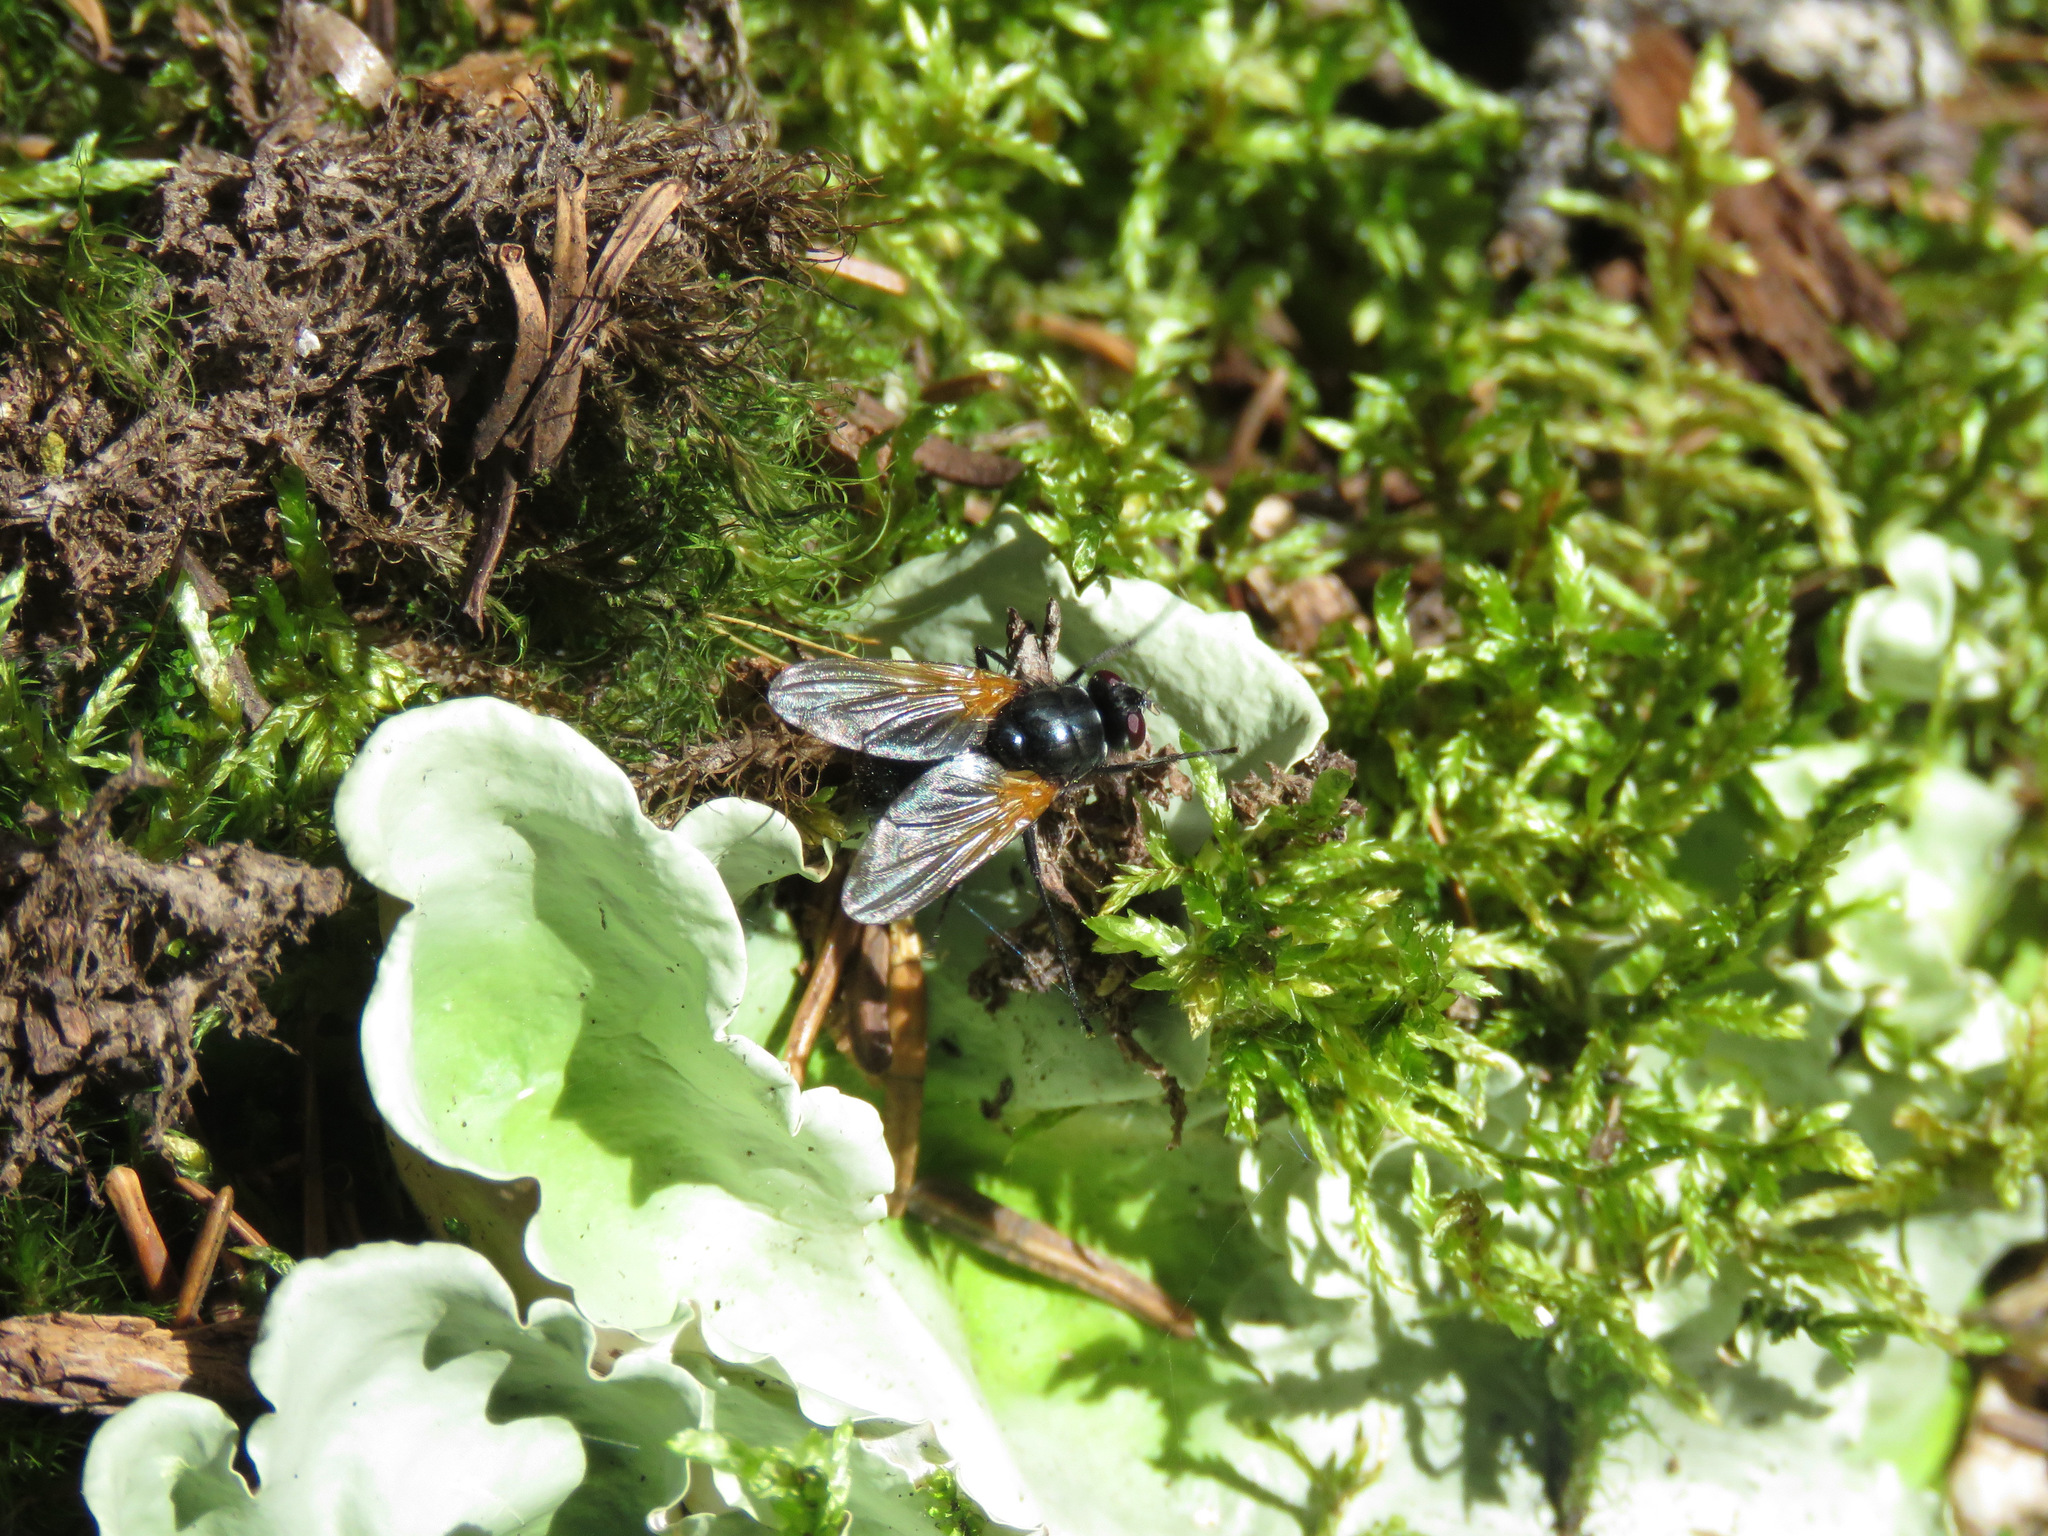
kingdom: Animalia
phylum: Arthropoda
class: Insecta
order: Diptera
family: Muscidae
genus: Mesembrina
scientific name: Mesembrina latreillii
